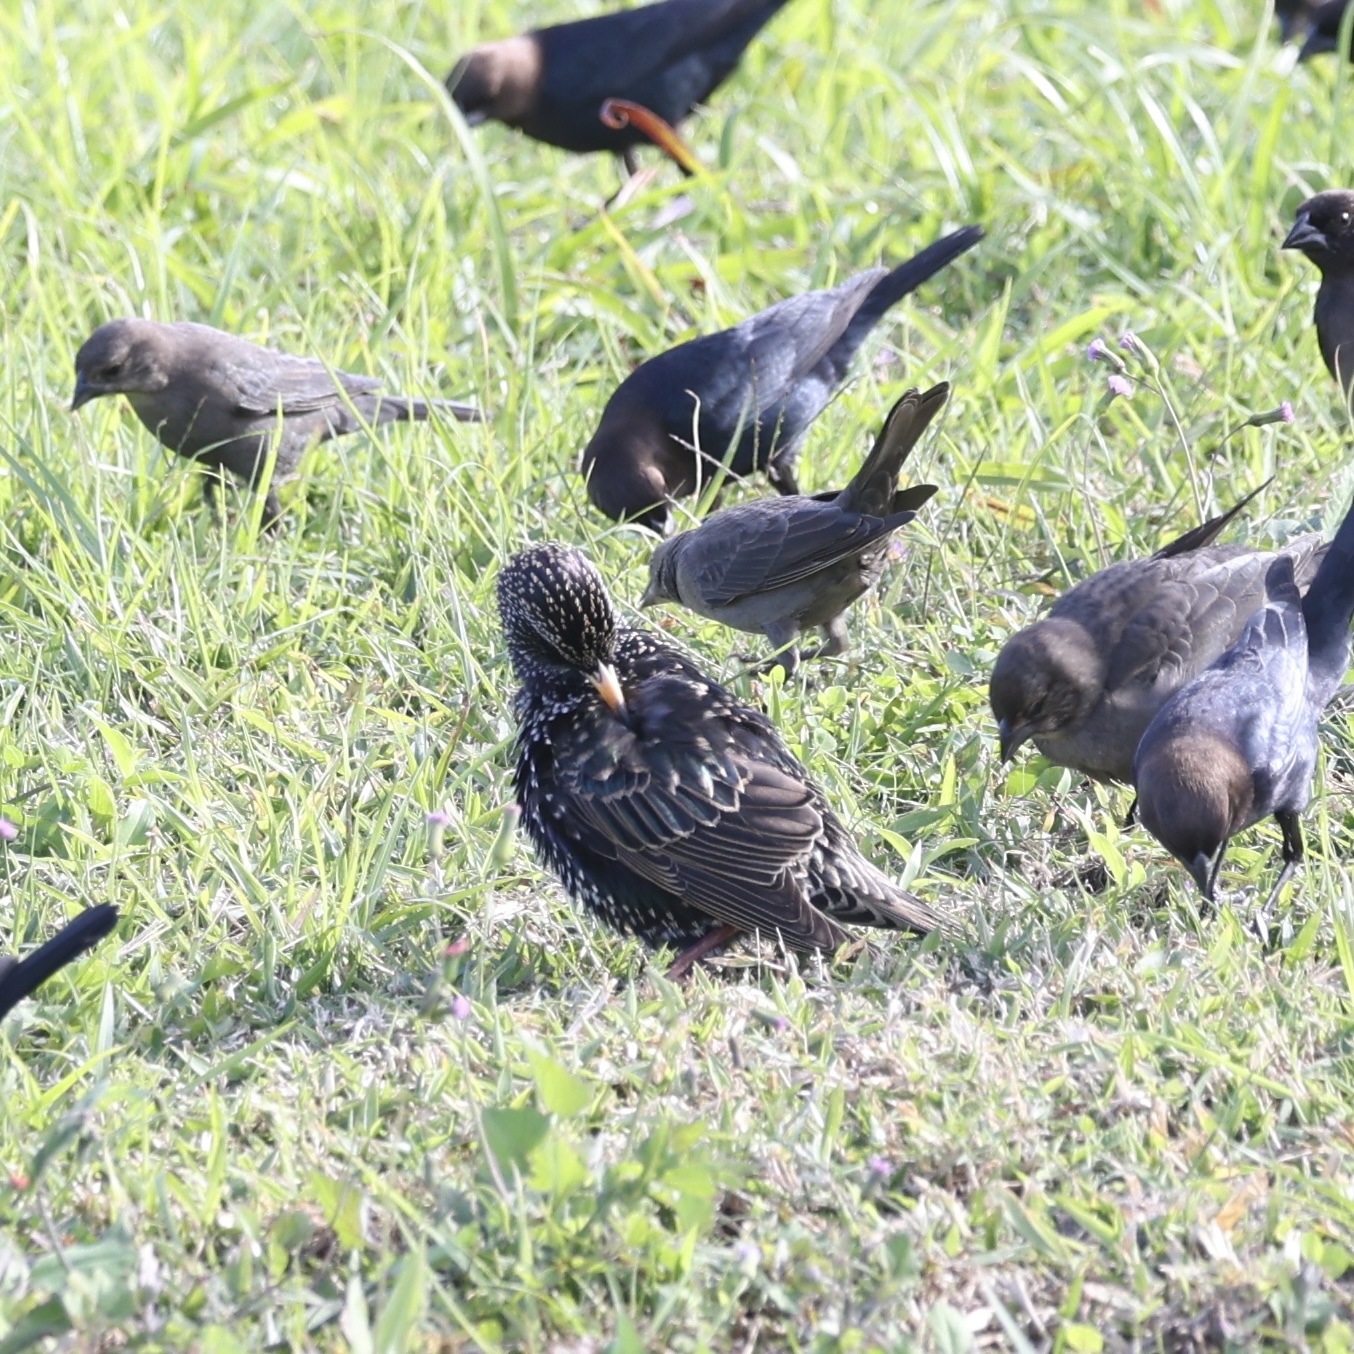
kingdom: Animalia
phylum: Chordata
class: Aves
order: Passeriformes
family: Sturnidae
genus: Sturnus
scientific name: Sturnus vulgaris
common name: Common starling
